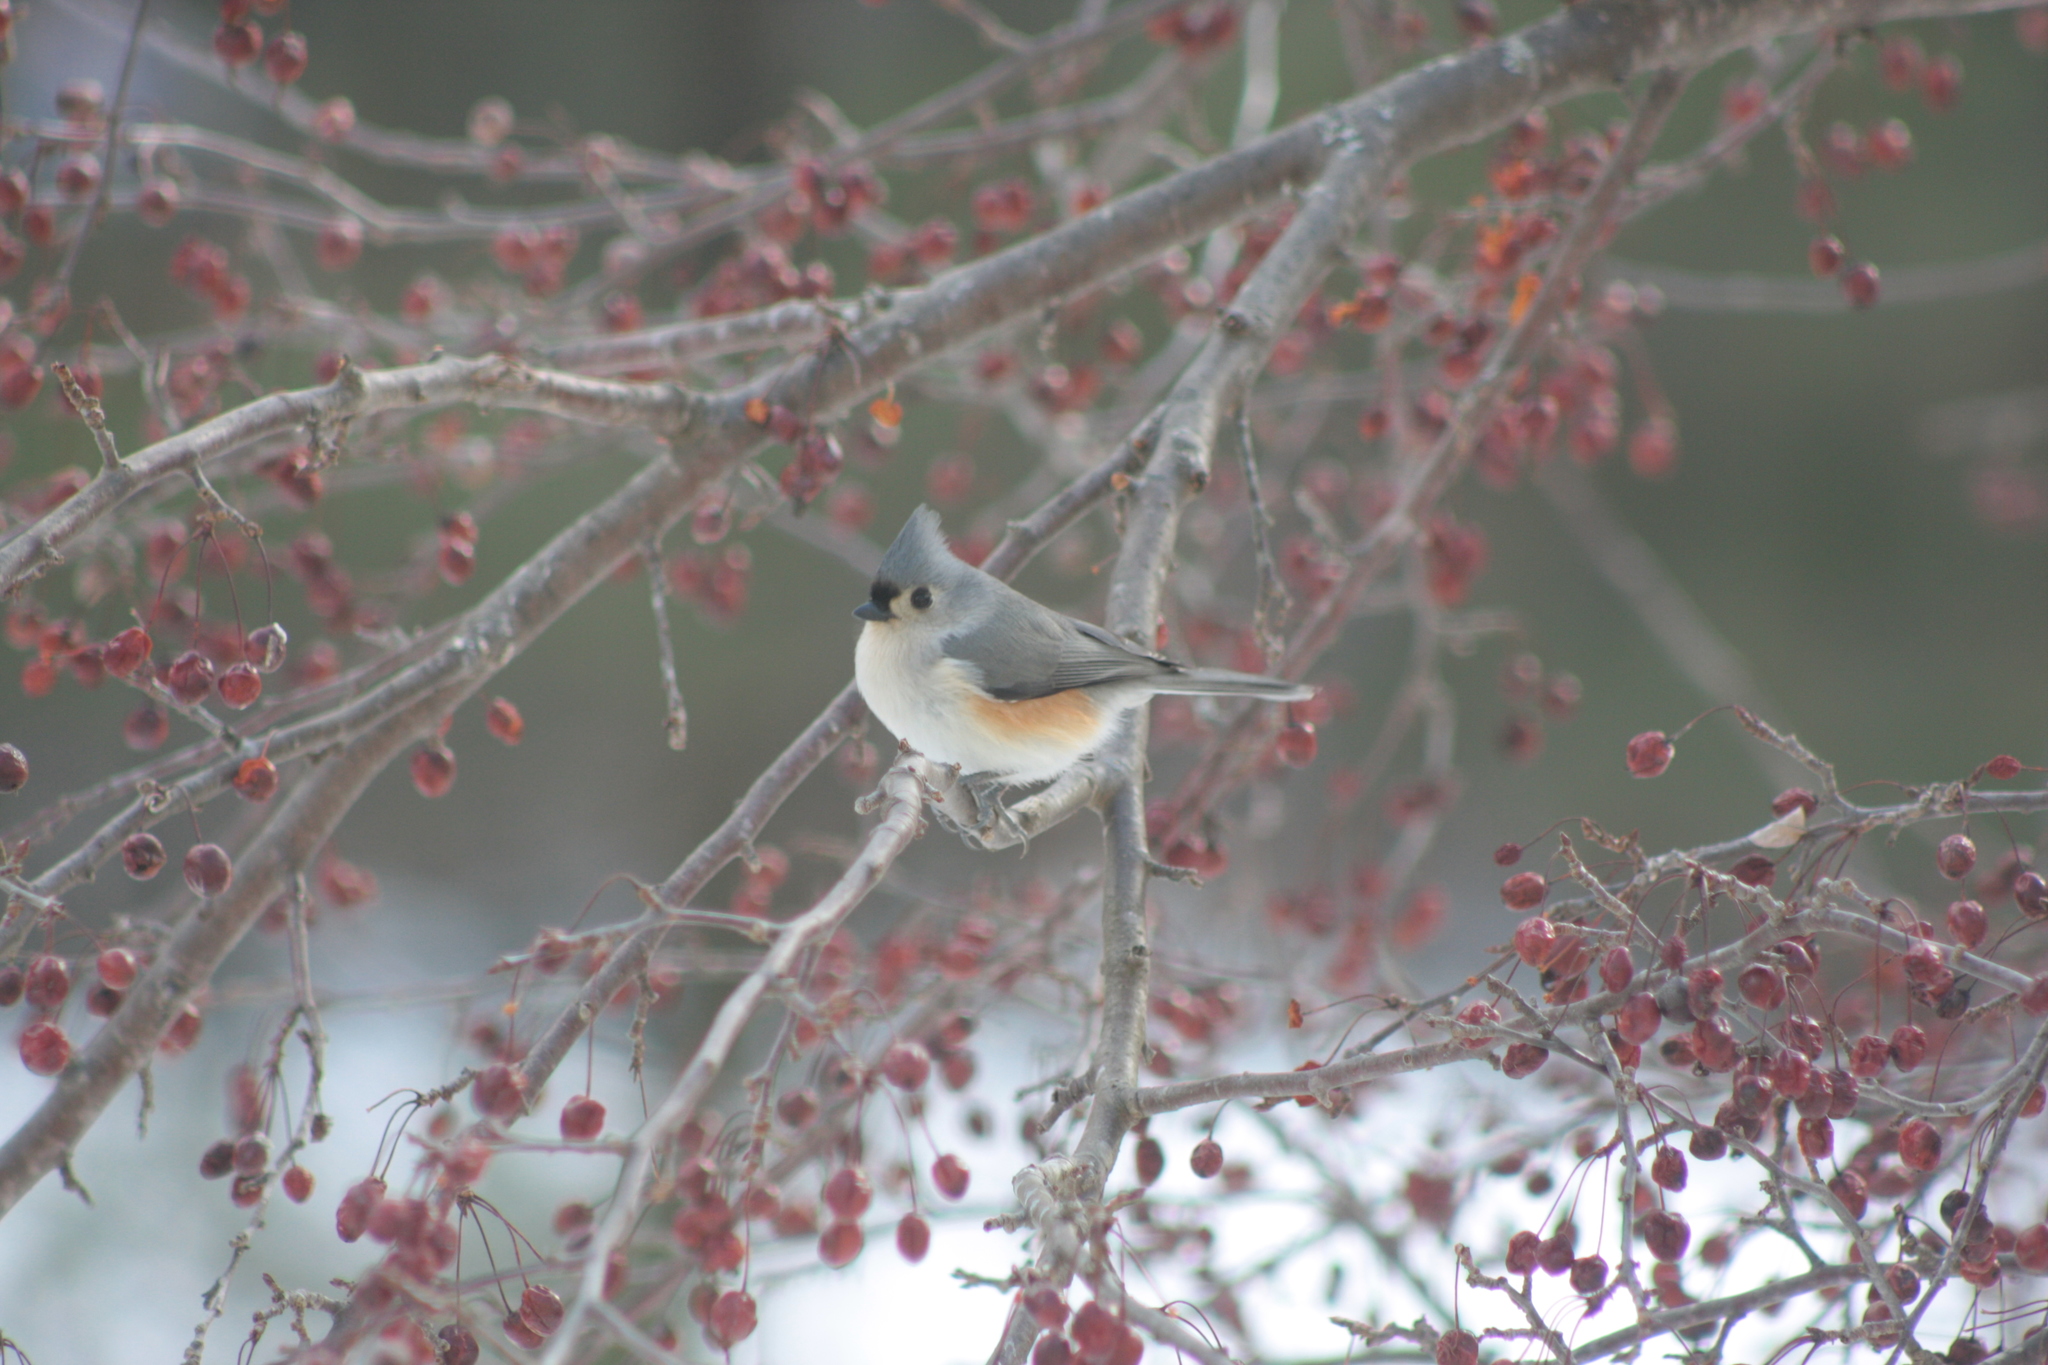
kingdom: Animalia
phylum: Chordata
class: Aves
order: Passeriformes
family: Paridae
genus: Baeolophus
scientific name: Baeolophus bicolor
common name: Tufted titmouse
